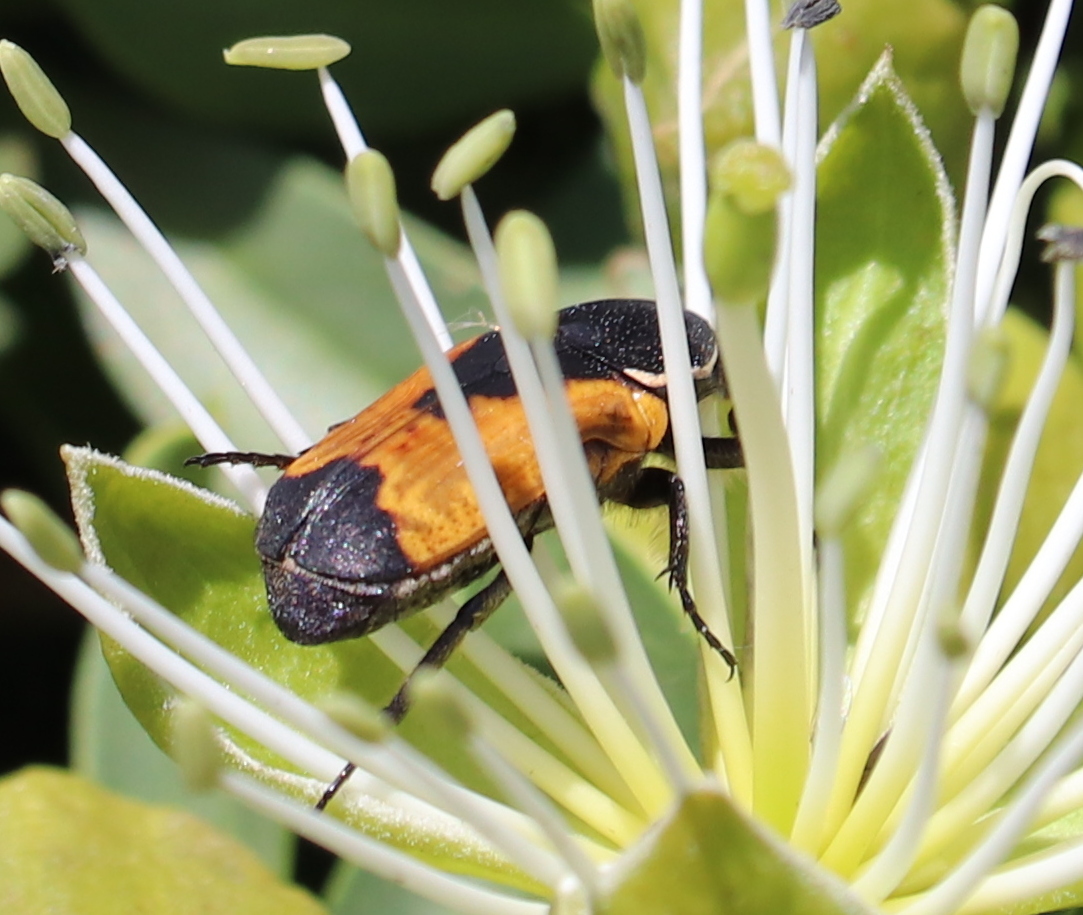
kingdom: Animalia
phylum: Arthropoda
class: Insecta
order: Coleoptera
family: Scarabaeidae
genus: Phonotaenia
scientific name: Phonotaenia balteata
